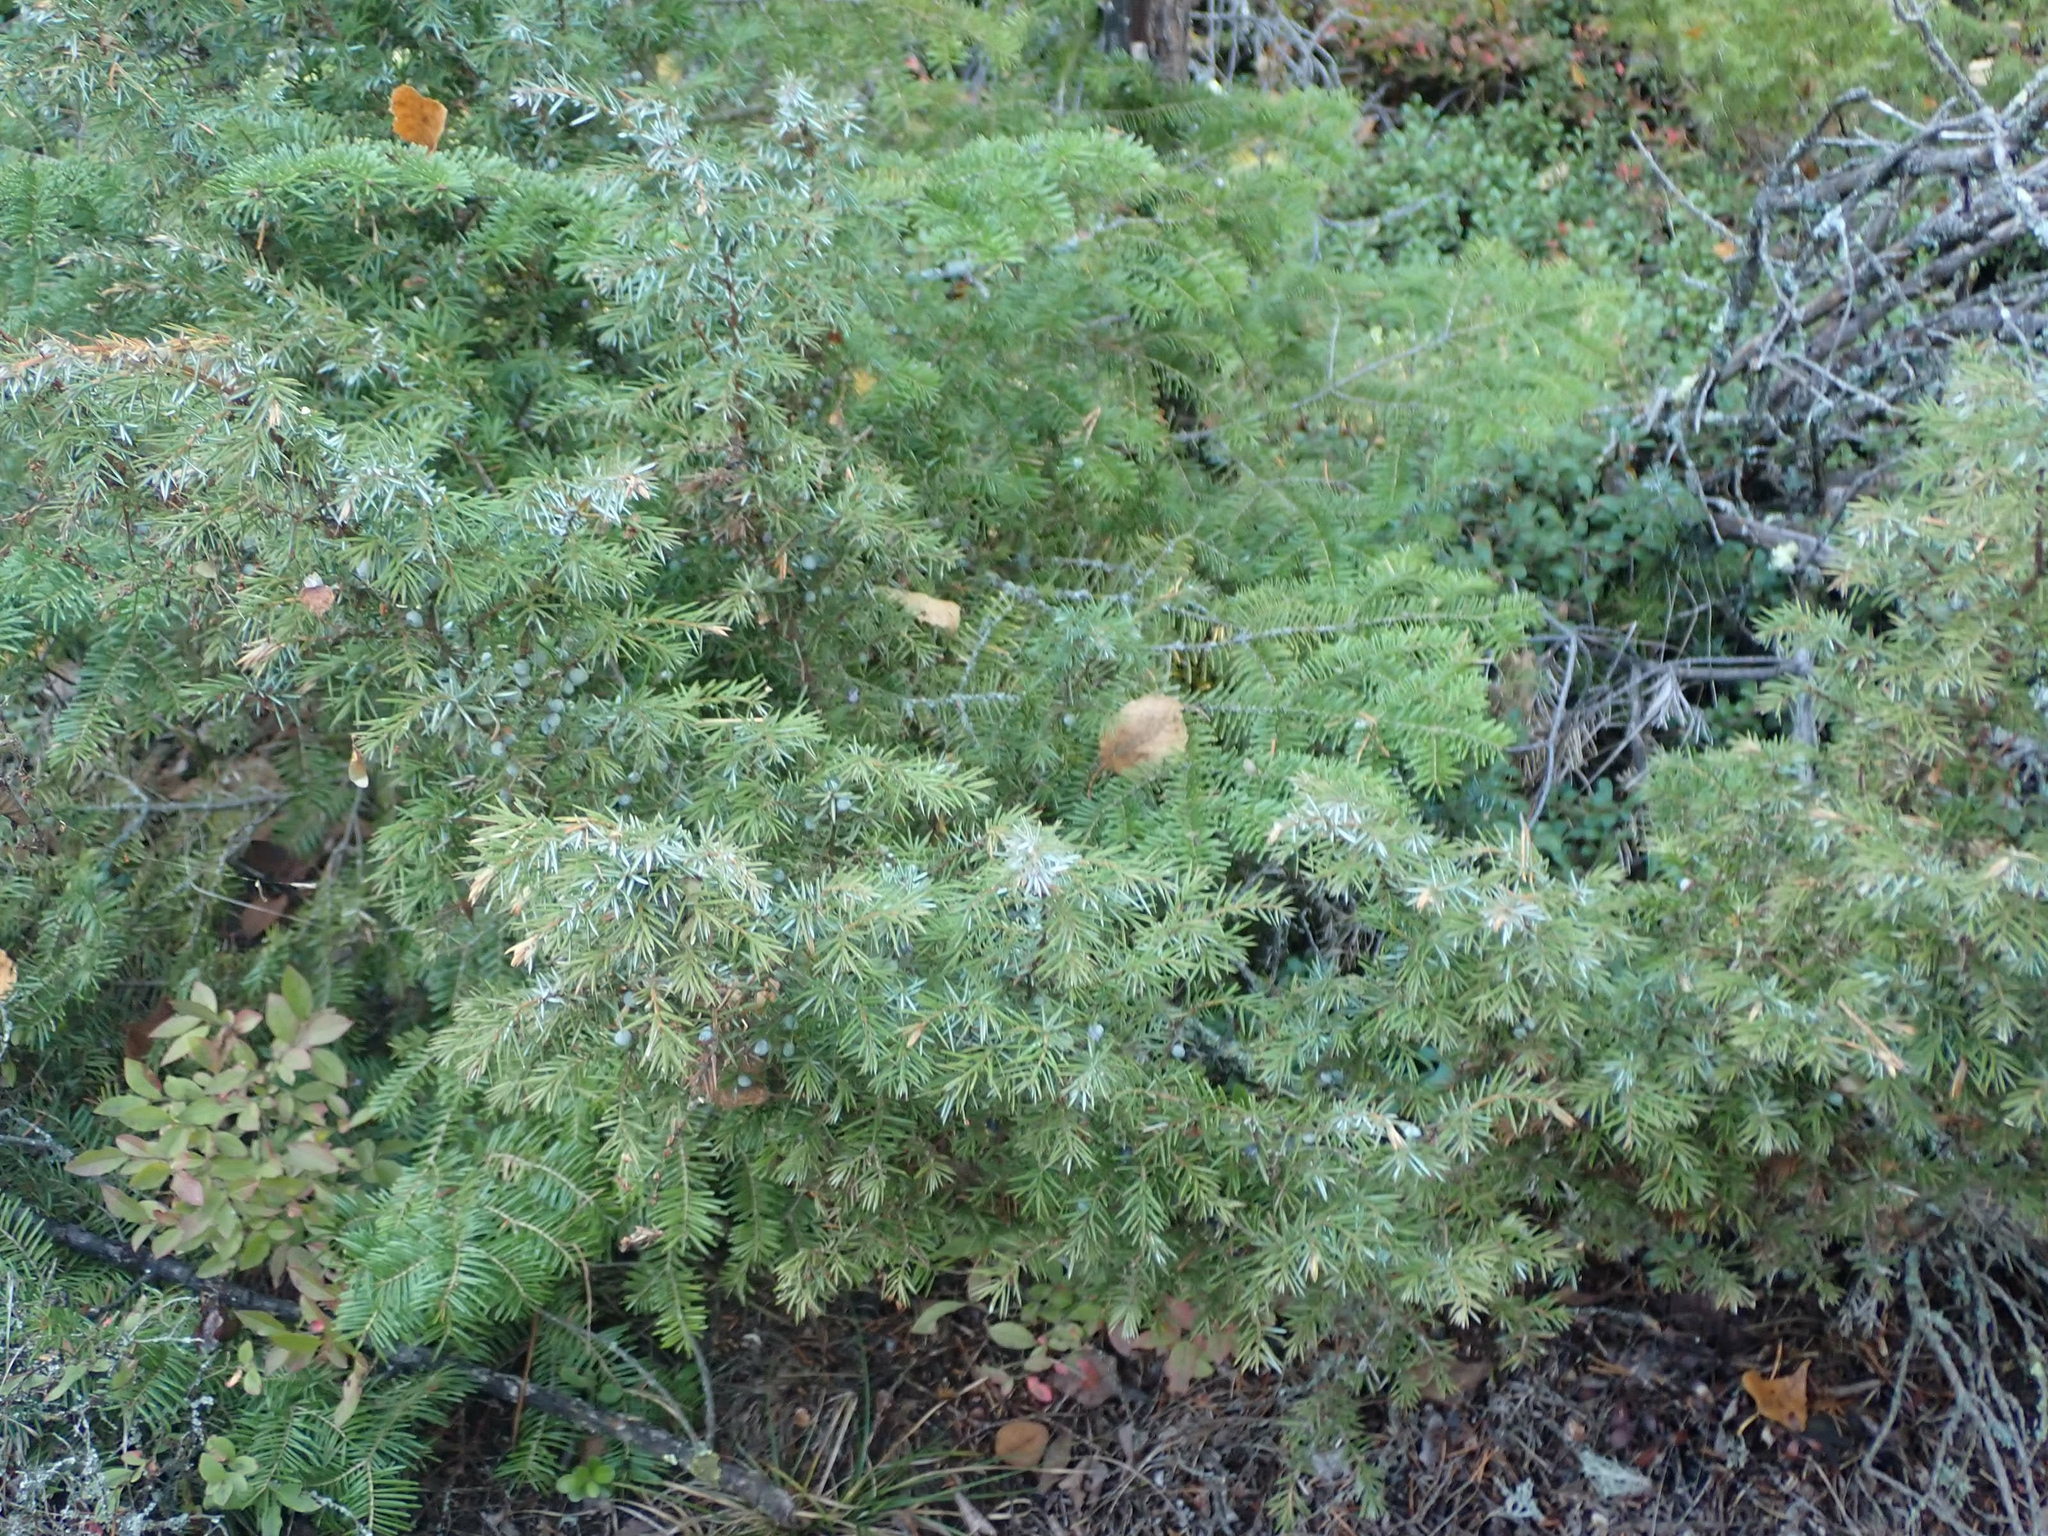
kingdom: Plantae
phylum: Tracheophyta
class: Pinopsida
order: Pinales
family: Cupressaceae
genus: Juniperus
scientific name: Juniperus communis
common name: Common juniper
